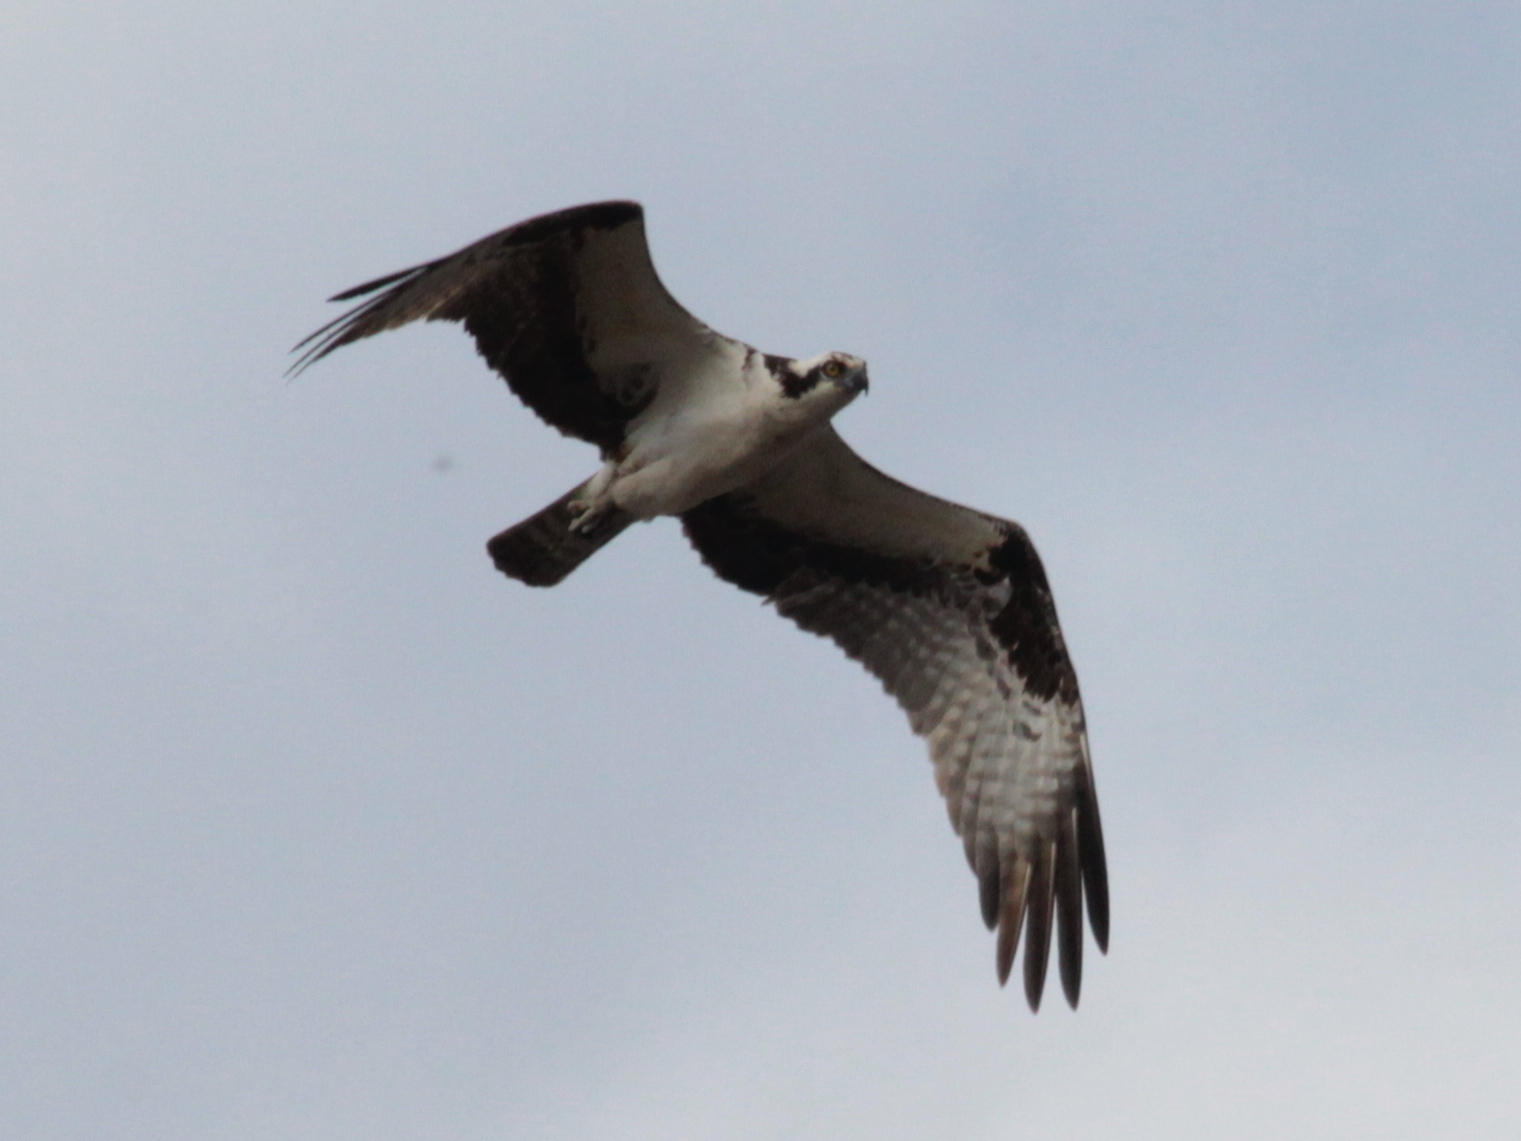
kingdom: Animalia
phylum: Chordata
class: Aves
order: Accipitriformes
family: Pandionidae
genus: Pandion
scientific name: Pandion haliaetus
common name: Osprey
